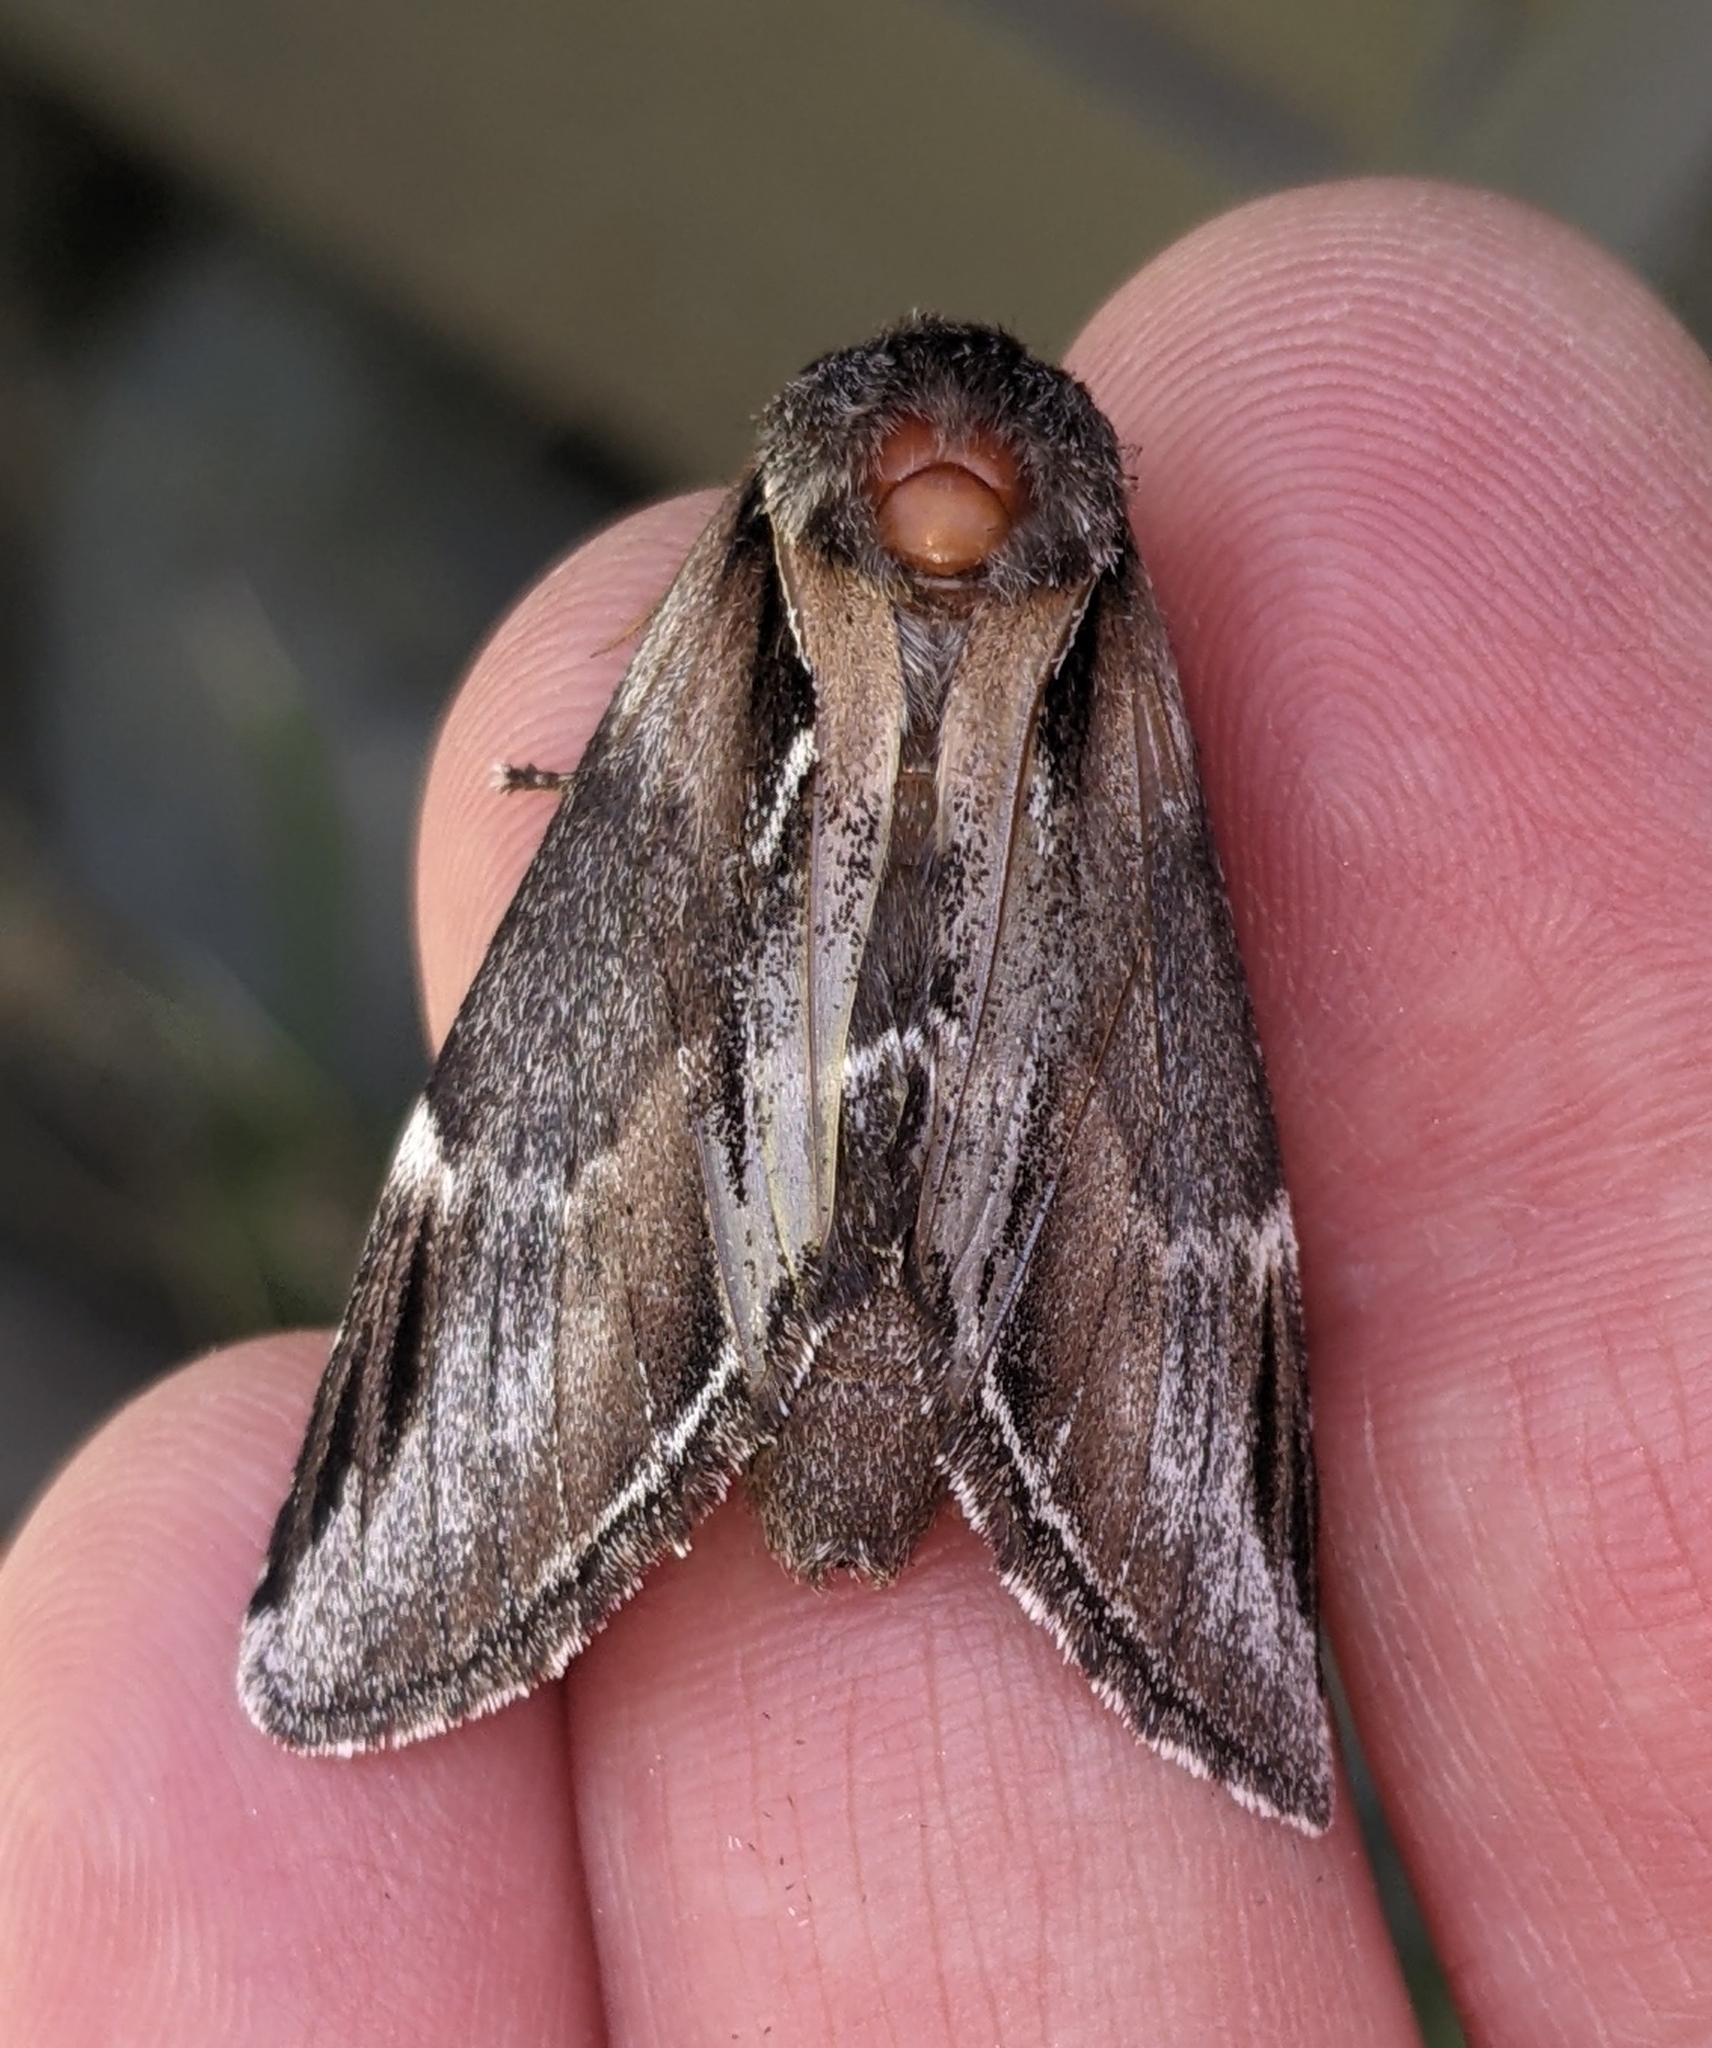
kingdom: Animalia
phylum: Arthropoda
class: Insecta
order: Lepidoptera
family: Notodontidae
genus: Pheosia
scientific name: Pheosia rimosa
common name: Black-rimmed prominent
